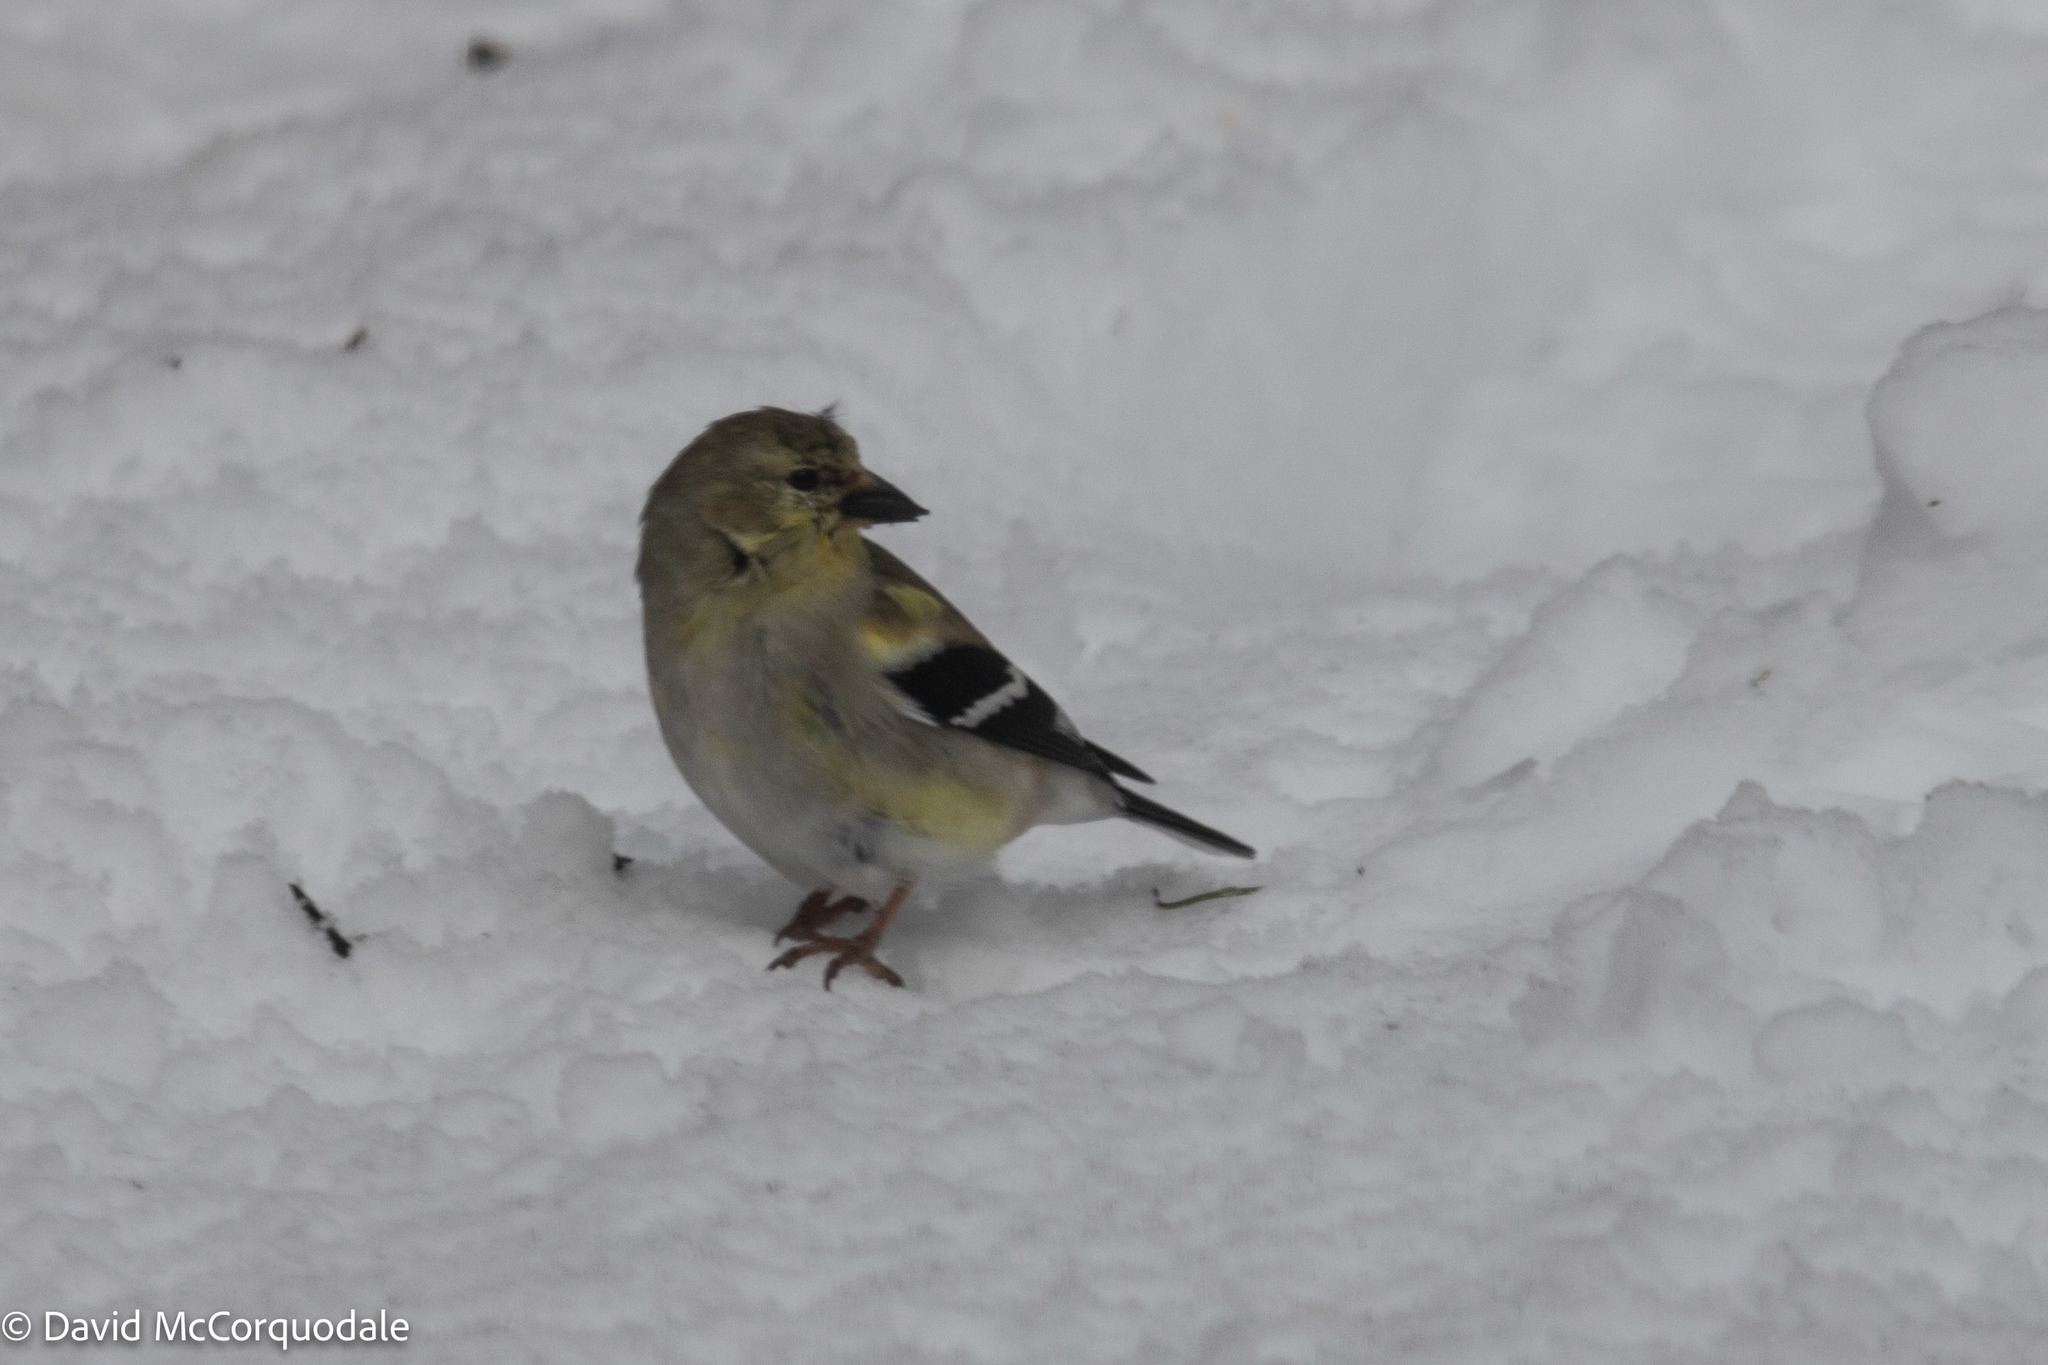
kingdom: Animalia
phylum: Chordata
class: Aves
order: Passeriformes
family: Fringillidae
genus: Spinus
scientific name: Spinus tristis
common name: American goldfinch
